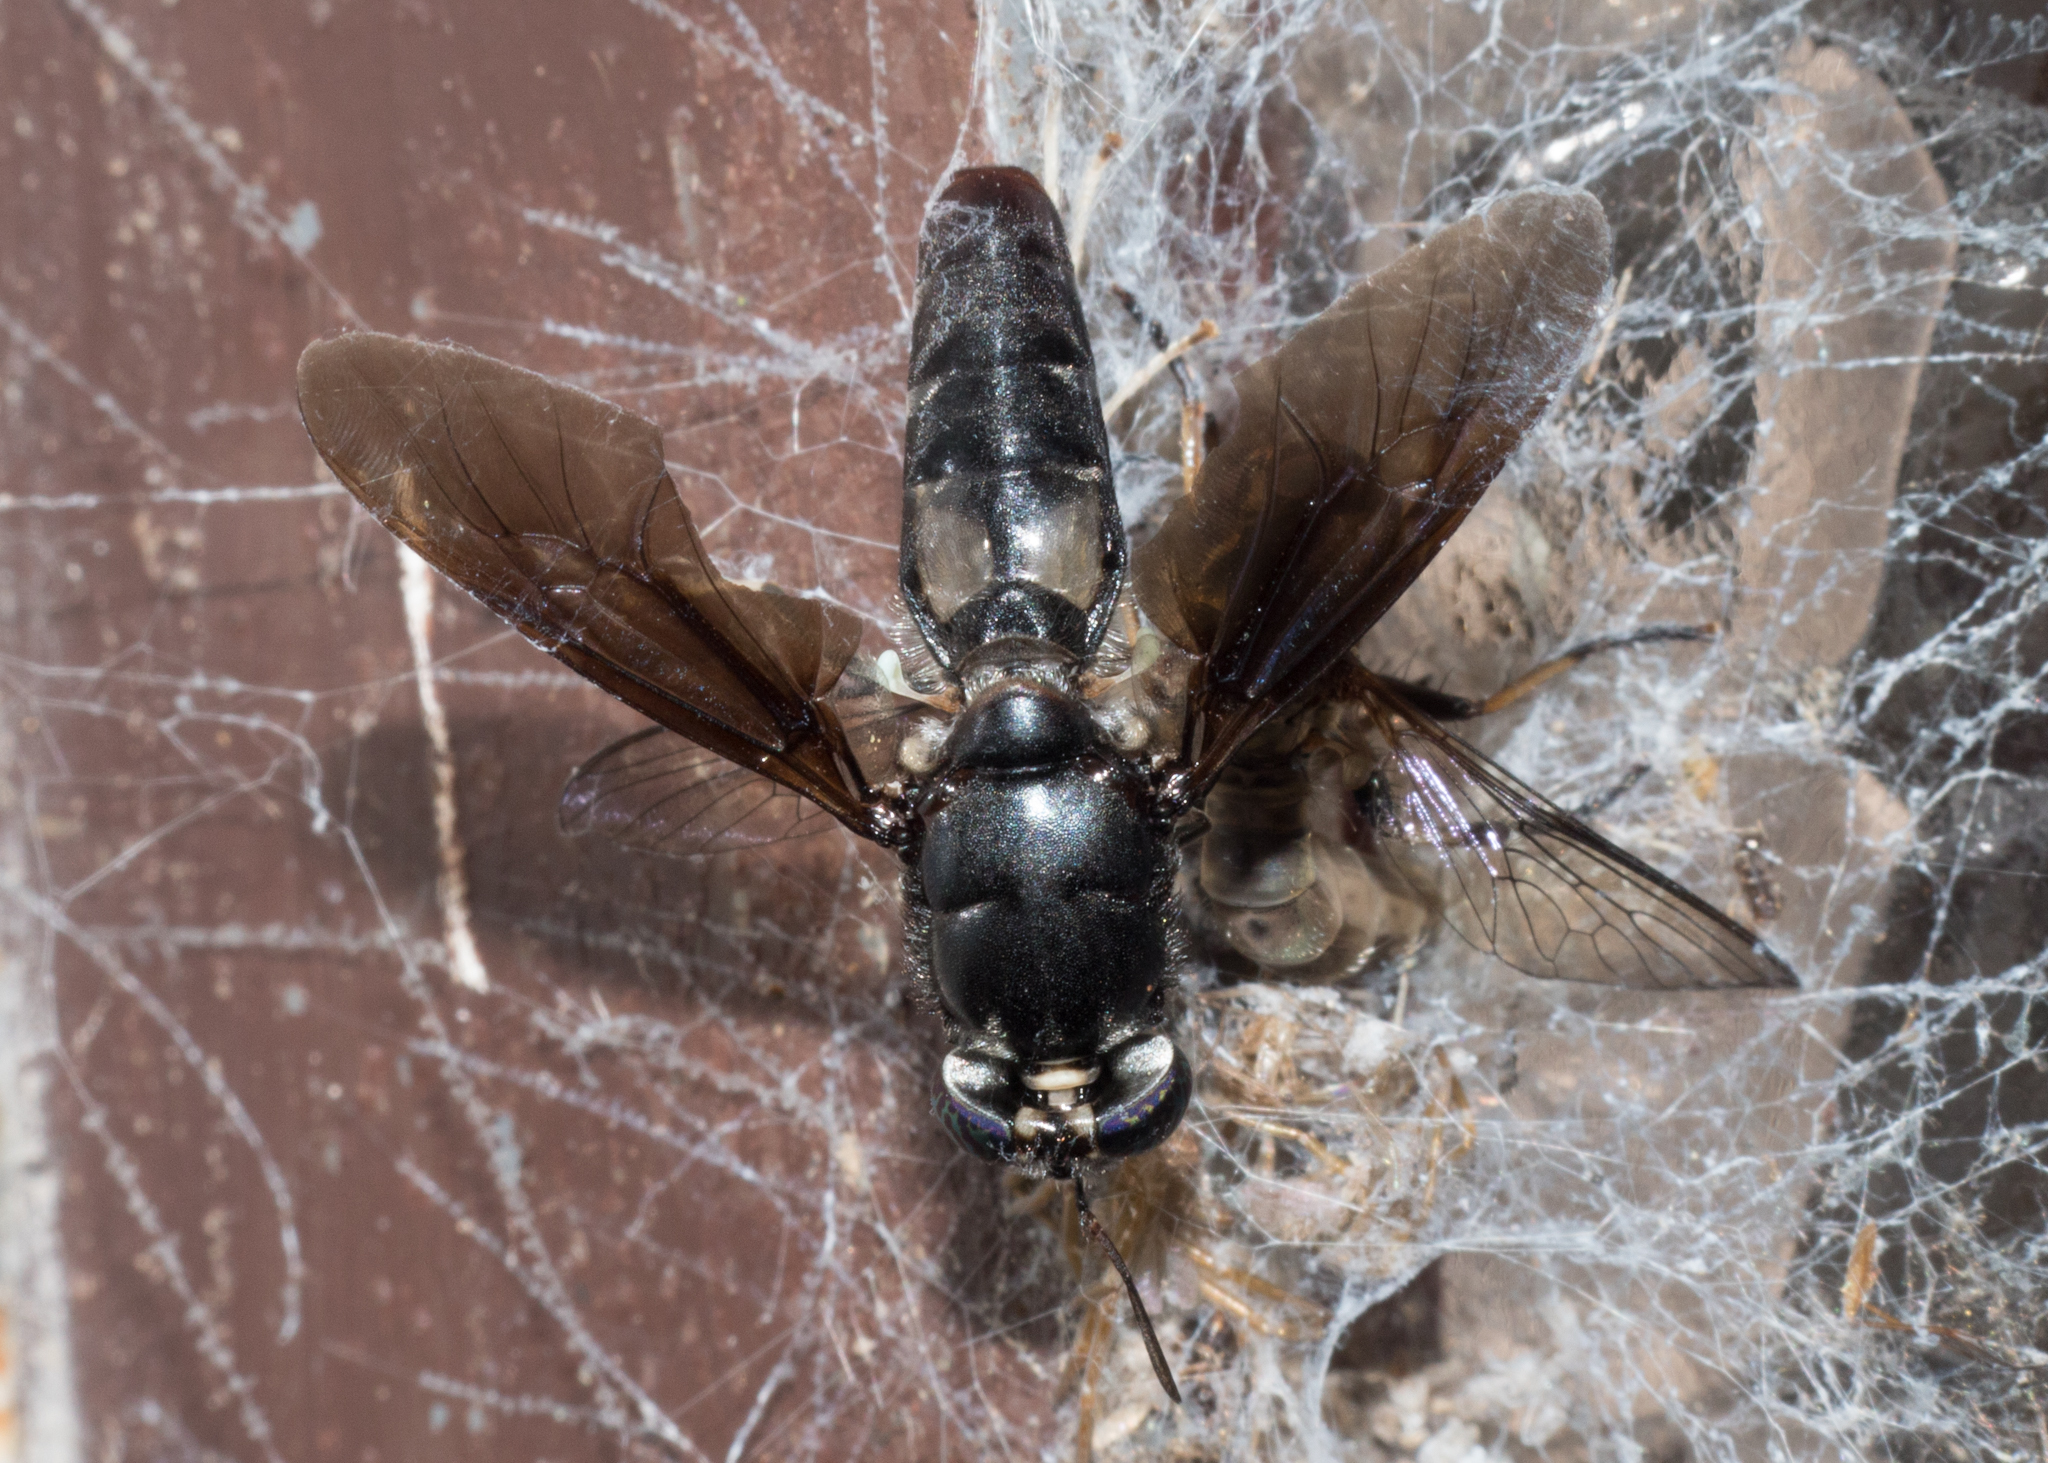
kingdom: Animalia
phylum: Arthropoda
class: Insecta
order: Diptera
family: Stratiomyidae
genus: Hermetia
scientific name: Hermetia illucens
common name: Black soldier fly
